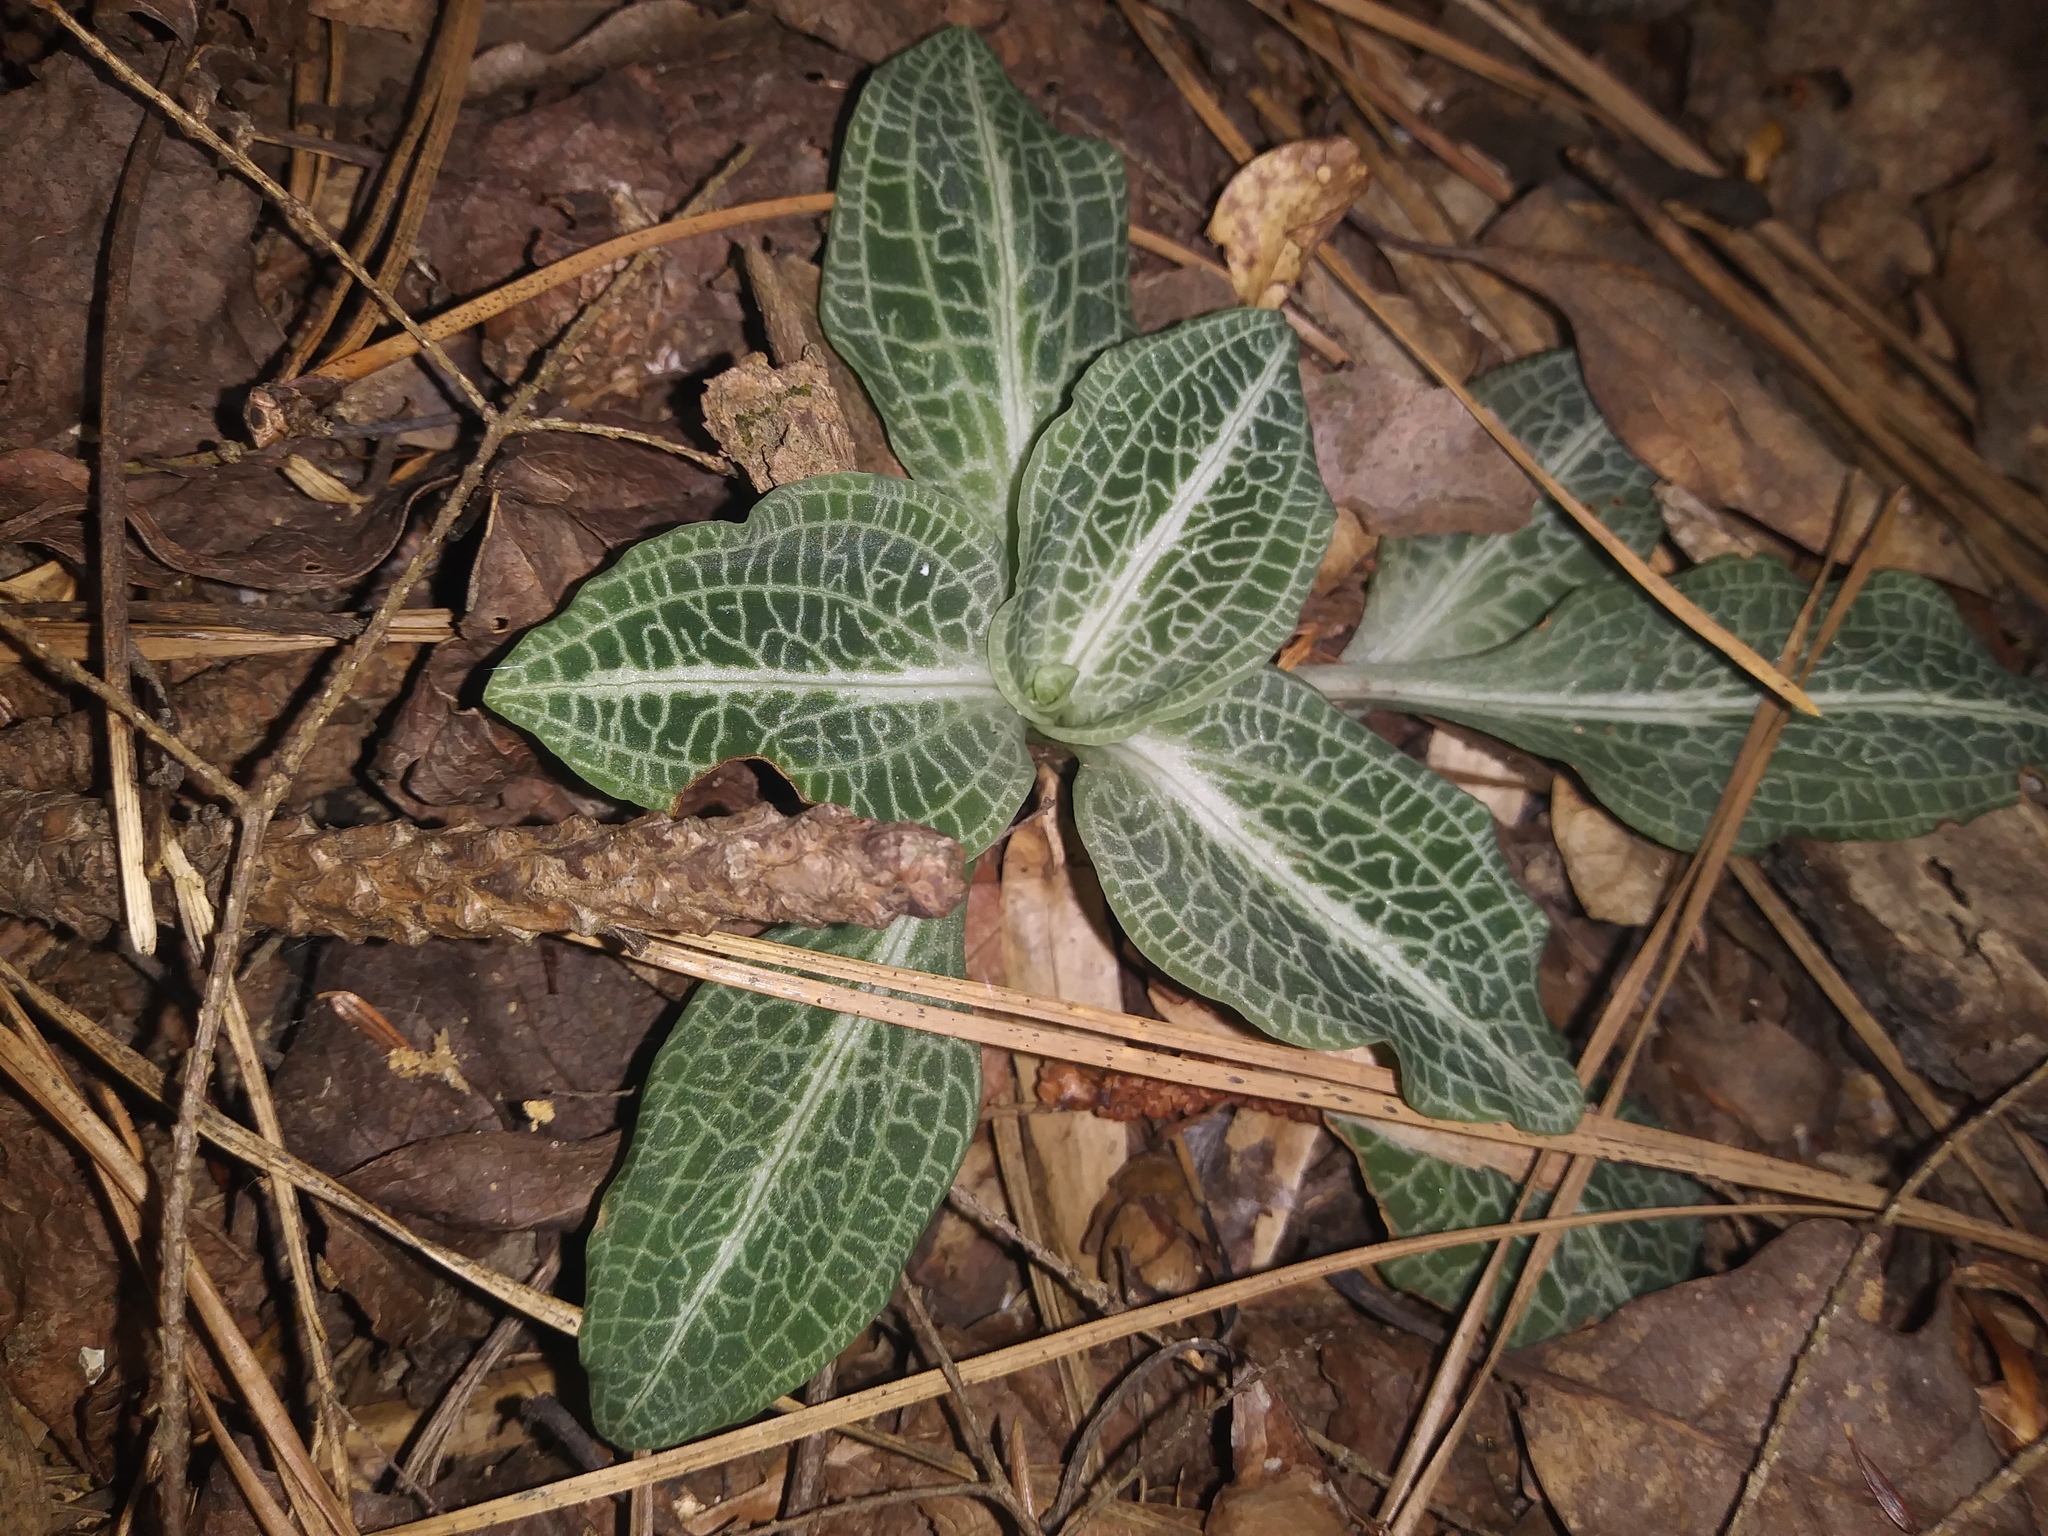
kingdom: Plantae
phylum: Tracheophyta
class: Liliopsida
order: Asparagales
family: Orchidaceae
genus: Goodyera
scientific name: Goodyera pubescens
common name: Downy rattlesnake-plantain
